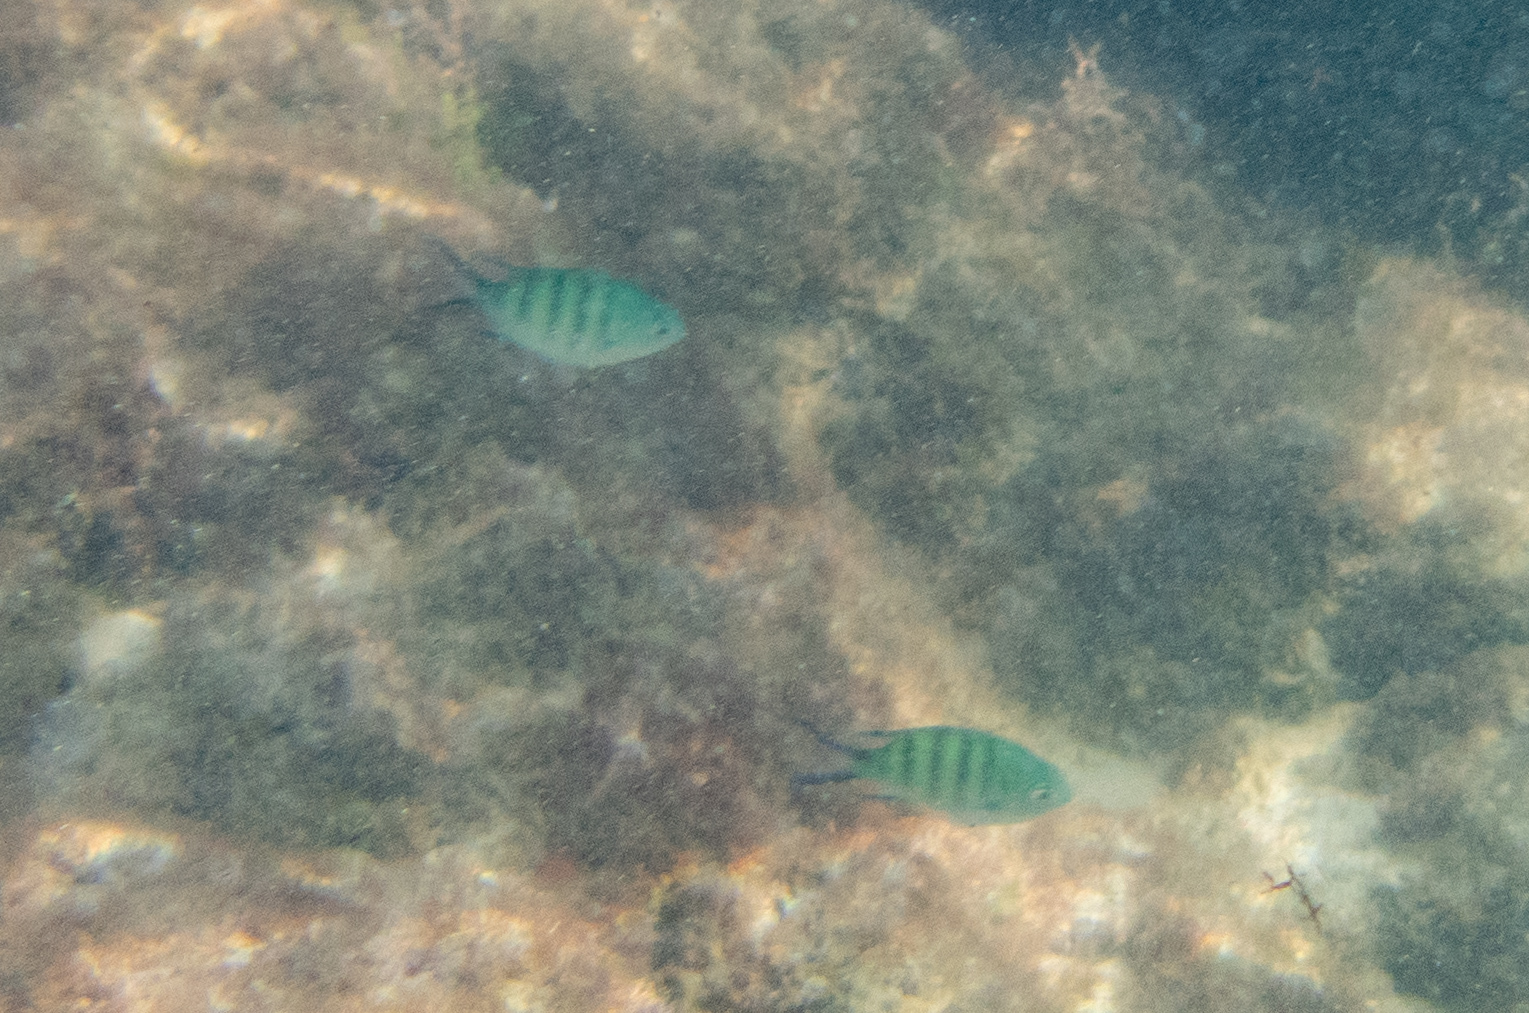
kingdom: Animalia
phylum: Chordata
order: Perciformes
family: Pomacentridae
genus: Abudefduf
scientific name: Abudefduf sexfasciatus
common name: Scissortail sergeant
